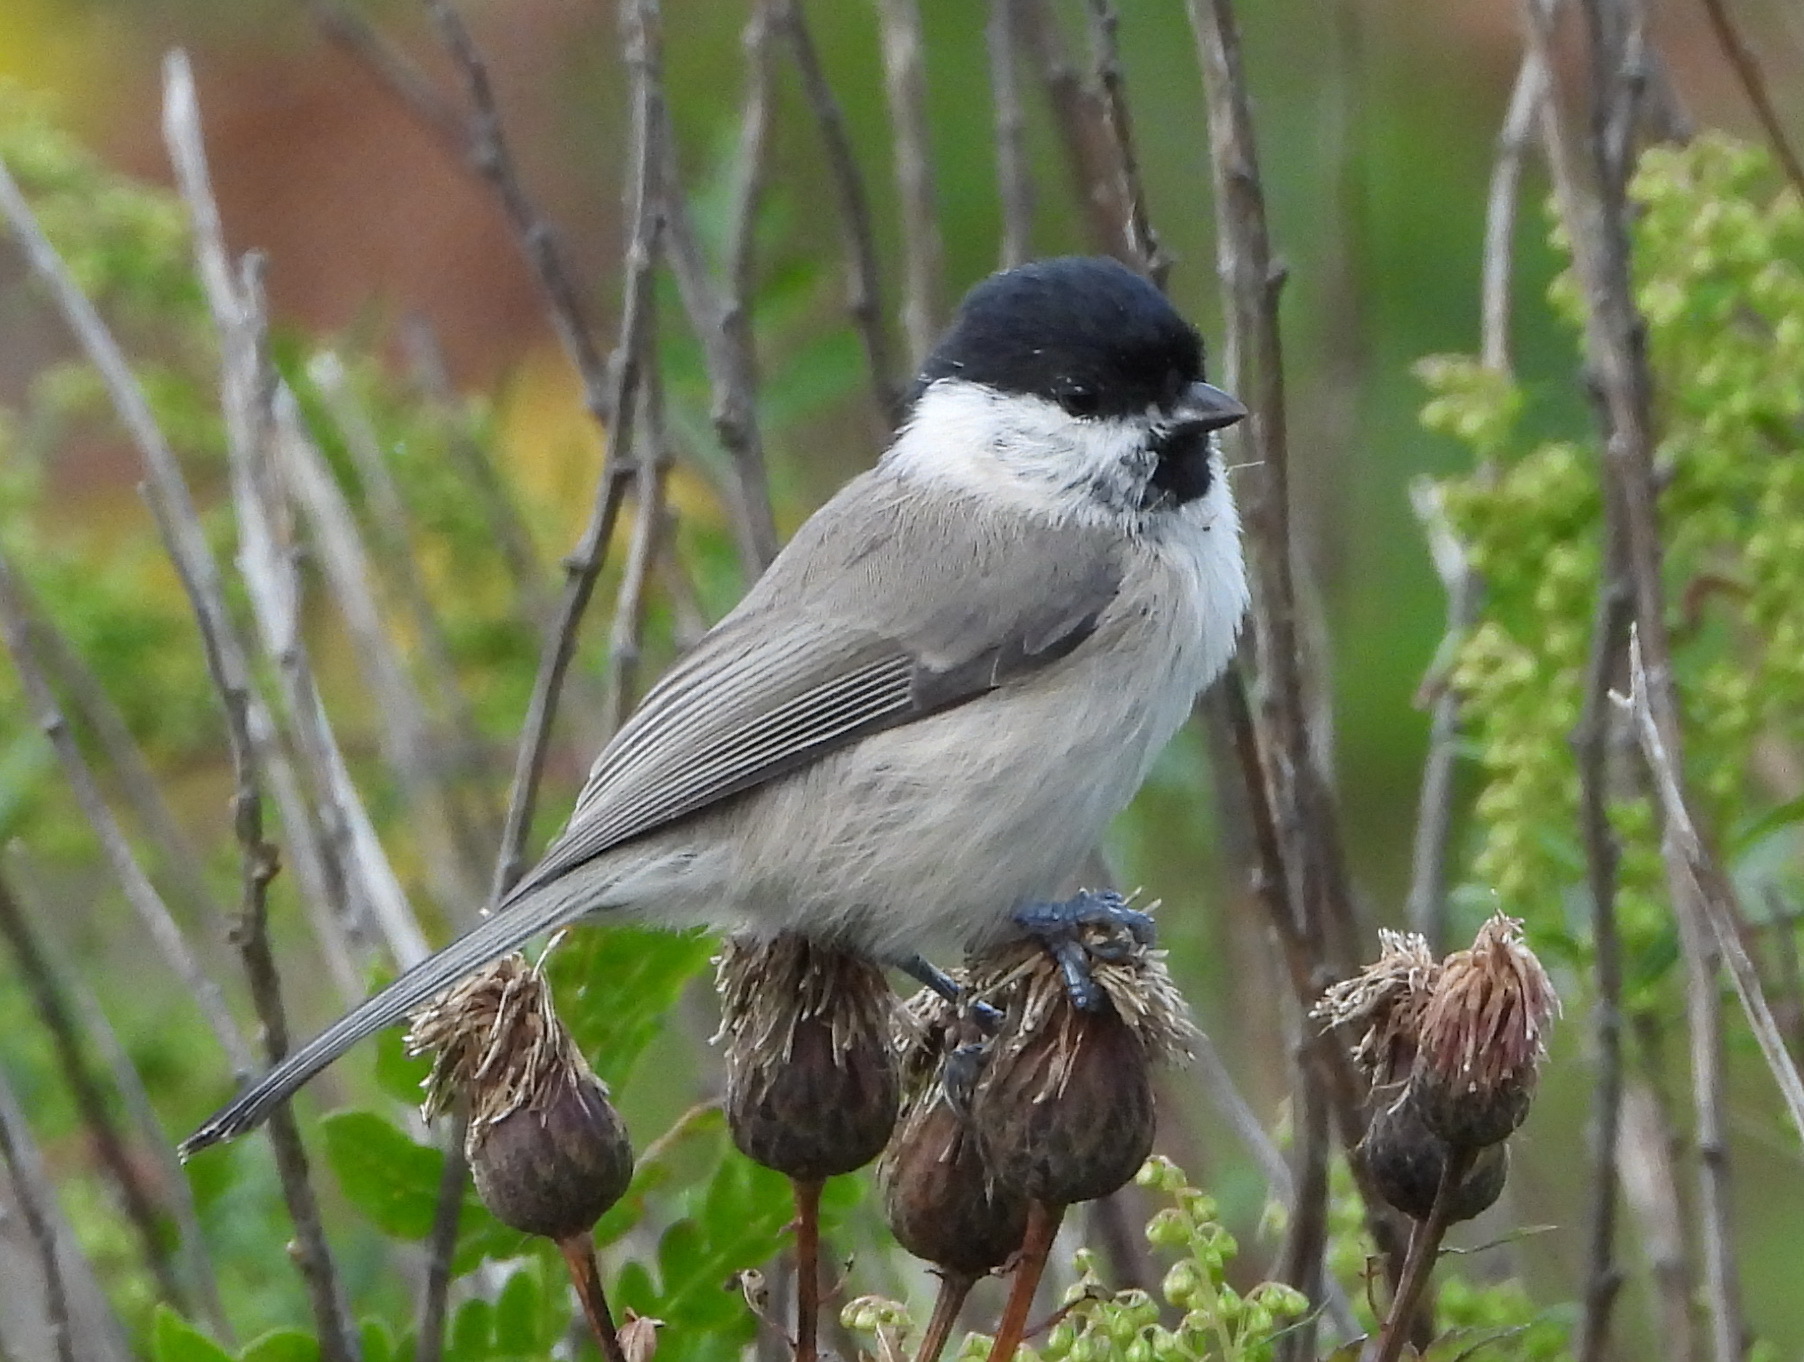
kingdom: Animalia
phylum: Chordata
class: Aves
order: Passeriformes
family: Paridae
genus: Poecile
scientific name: Poecile palustris
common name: Marsh tit
